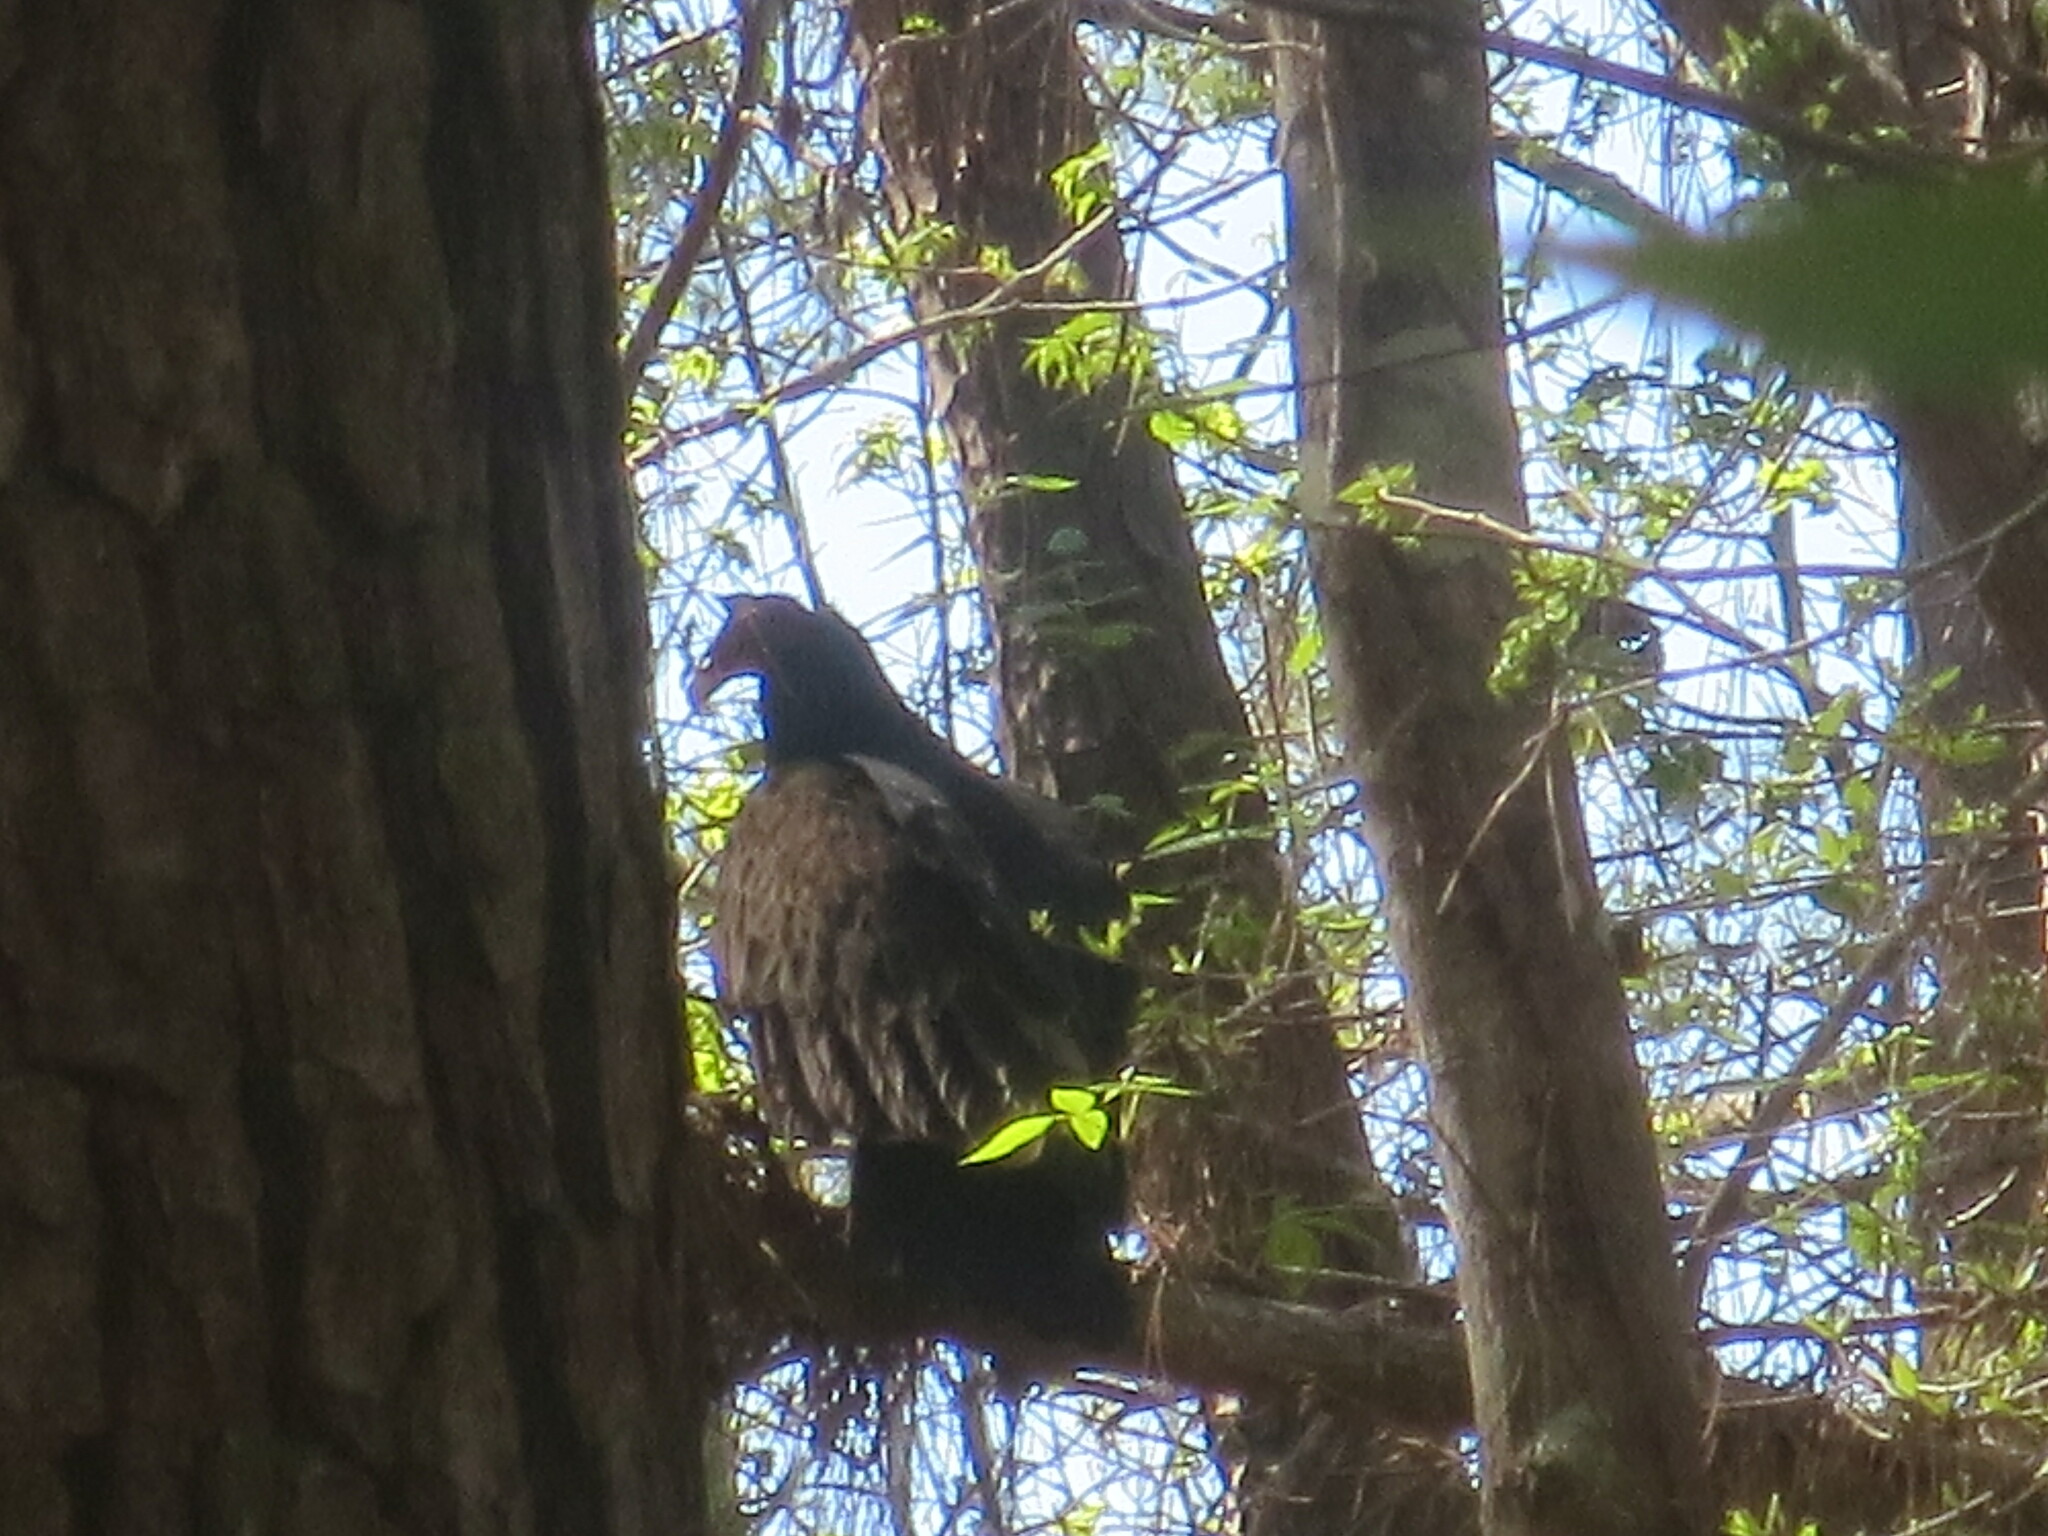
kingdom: Animalia
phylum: Chordata
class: Aves
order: Accipitriformes
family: Cathartidae
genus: Cathartes
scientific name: Cathartes aura
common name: Turkey vulture
